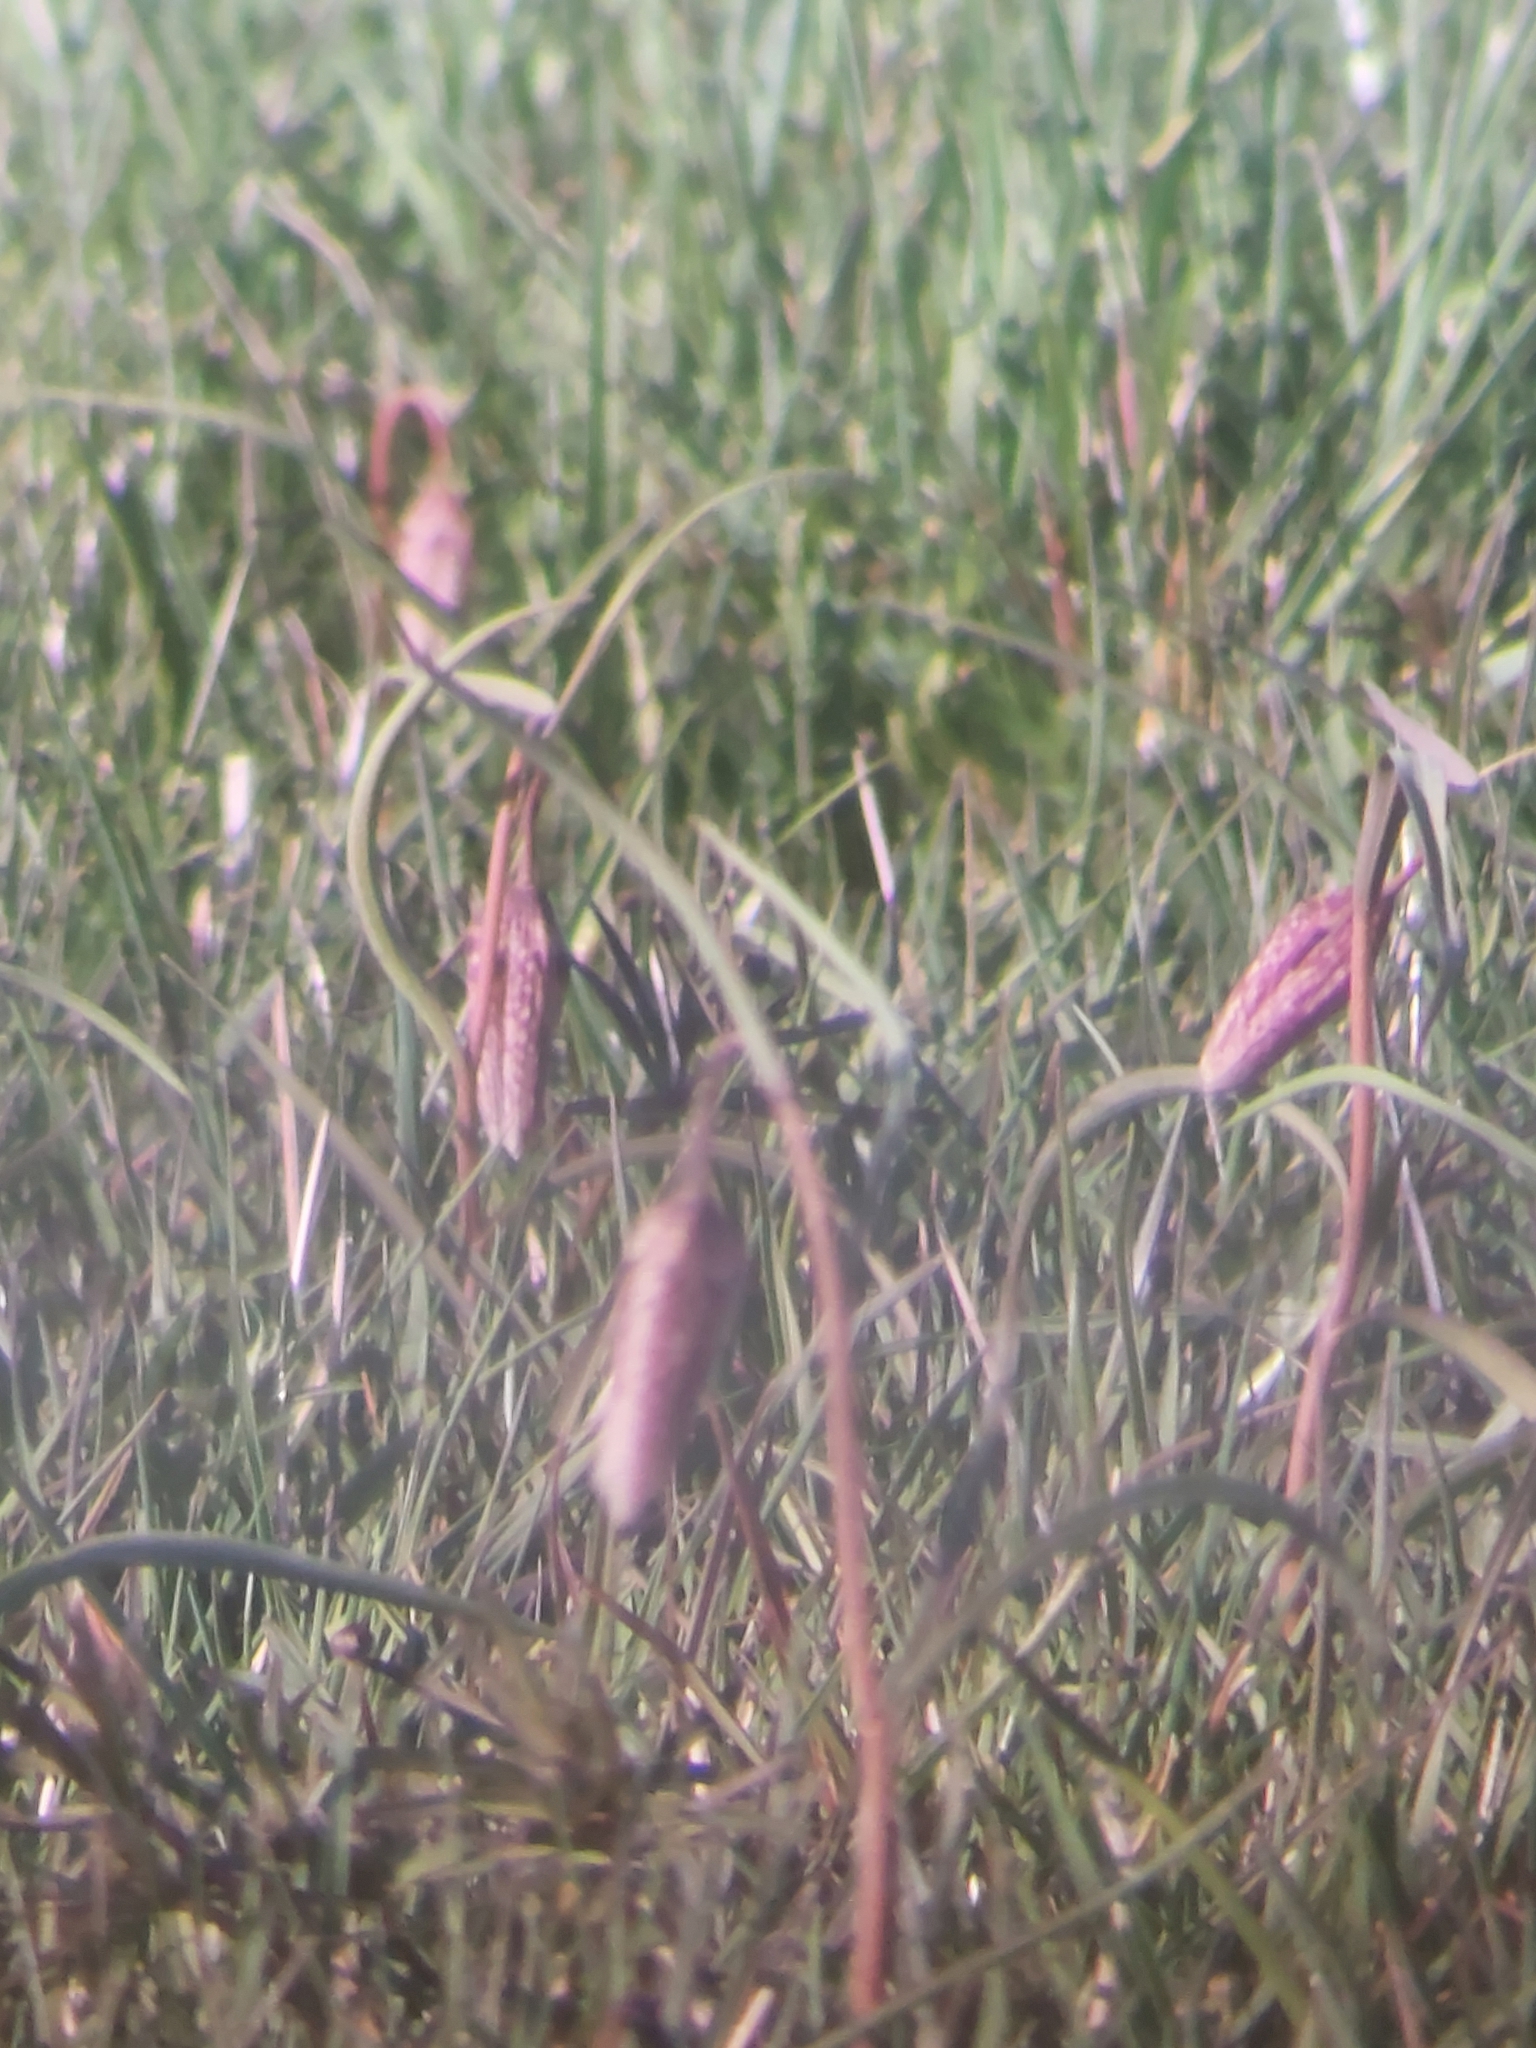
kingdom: Plantae
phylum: Tracheophyta
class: Liliopsida
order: Liliales
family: Liliaceae
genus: Fritillaria
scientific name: Fritillaria meleagris
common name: Fritillary
